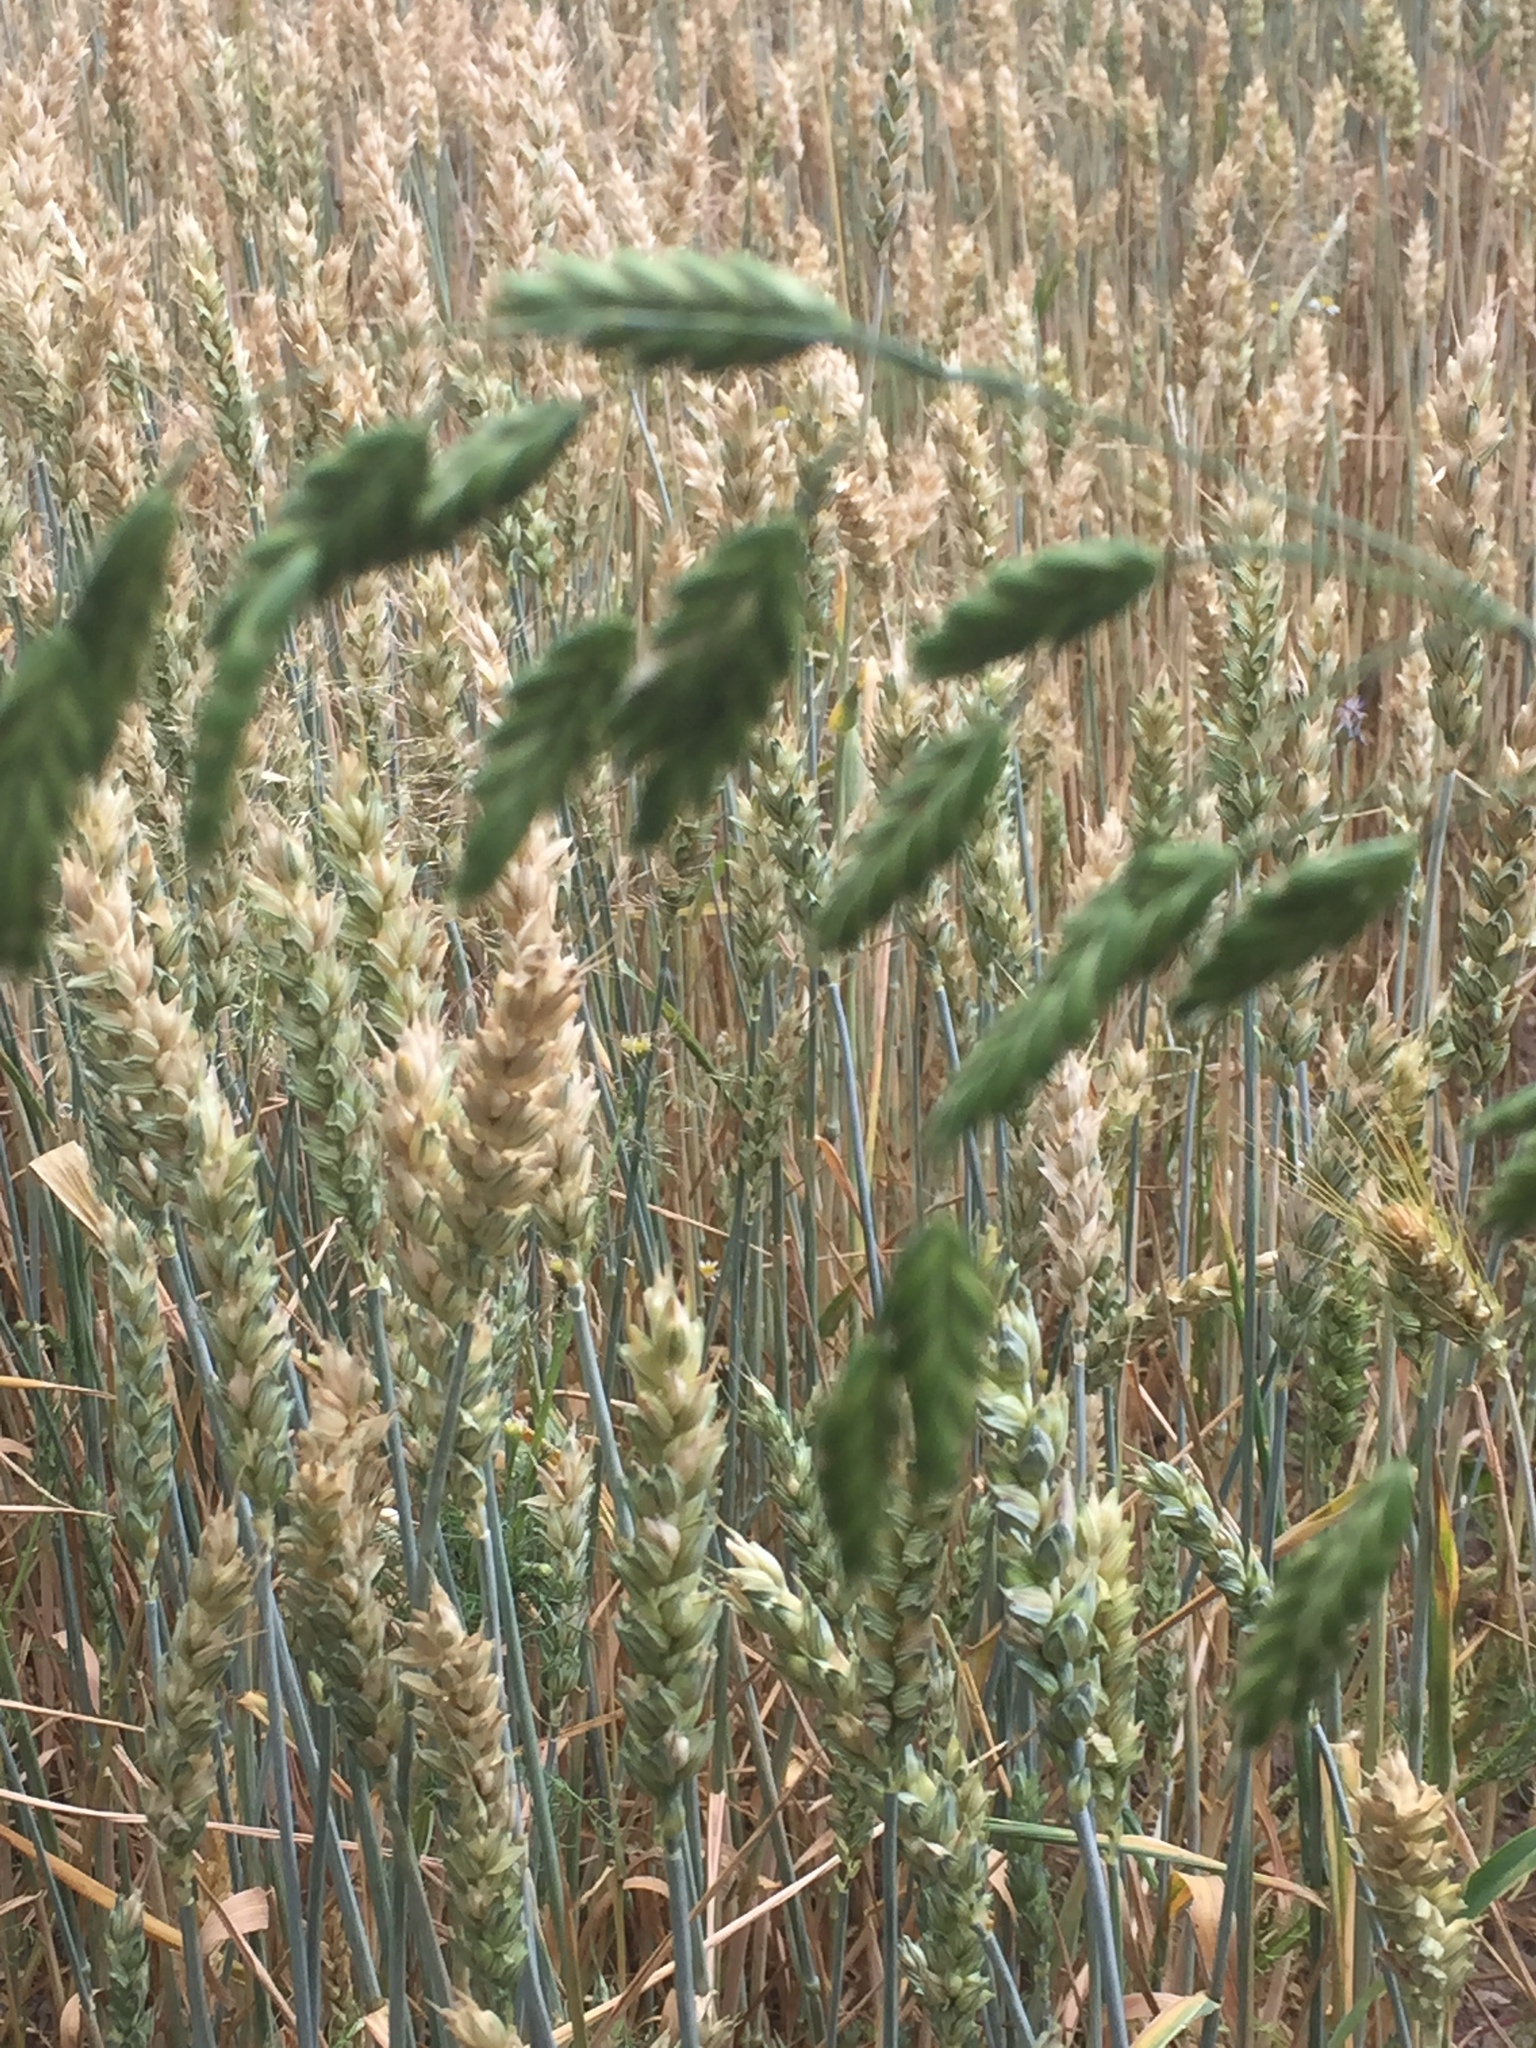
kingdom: Plantae
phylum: Tracheophyta
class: Liliopsida
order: Poales
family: Poaceae
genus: Bromus
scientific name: Bromus secalinus
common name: Rye brome
